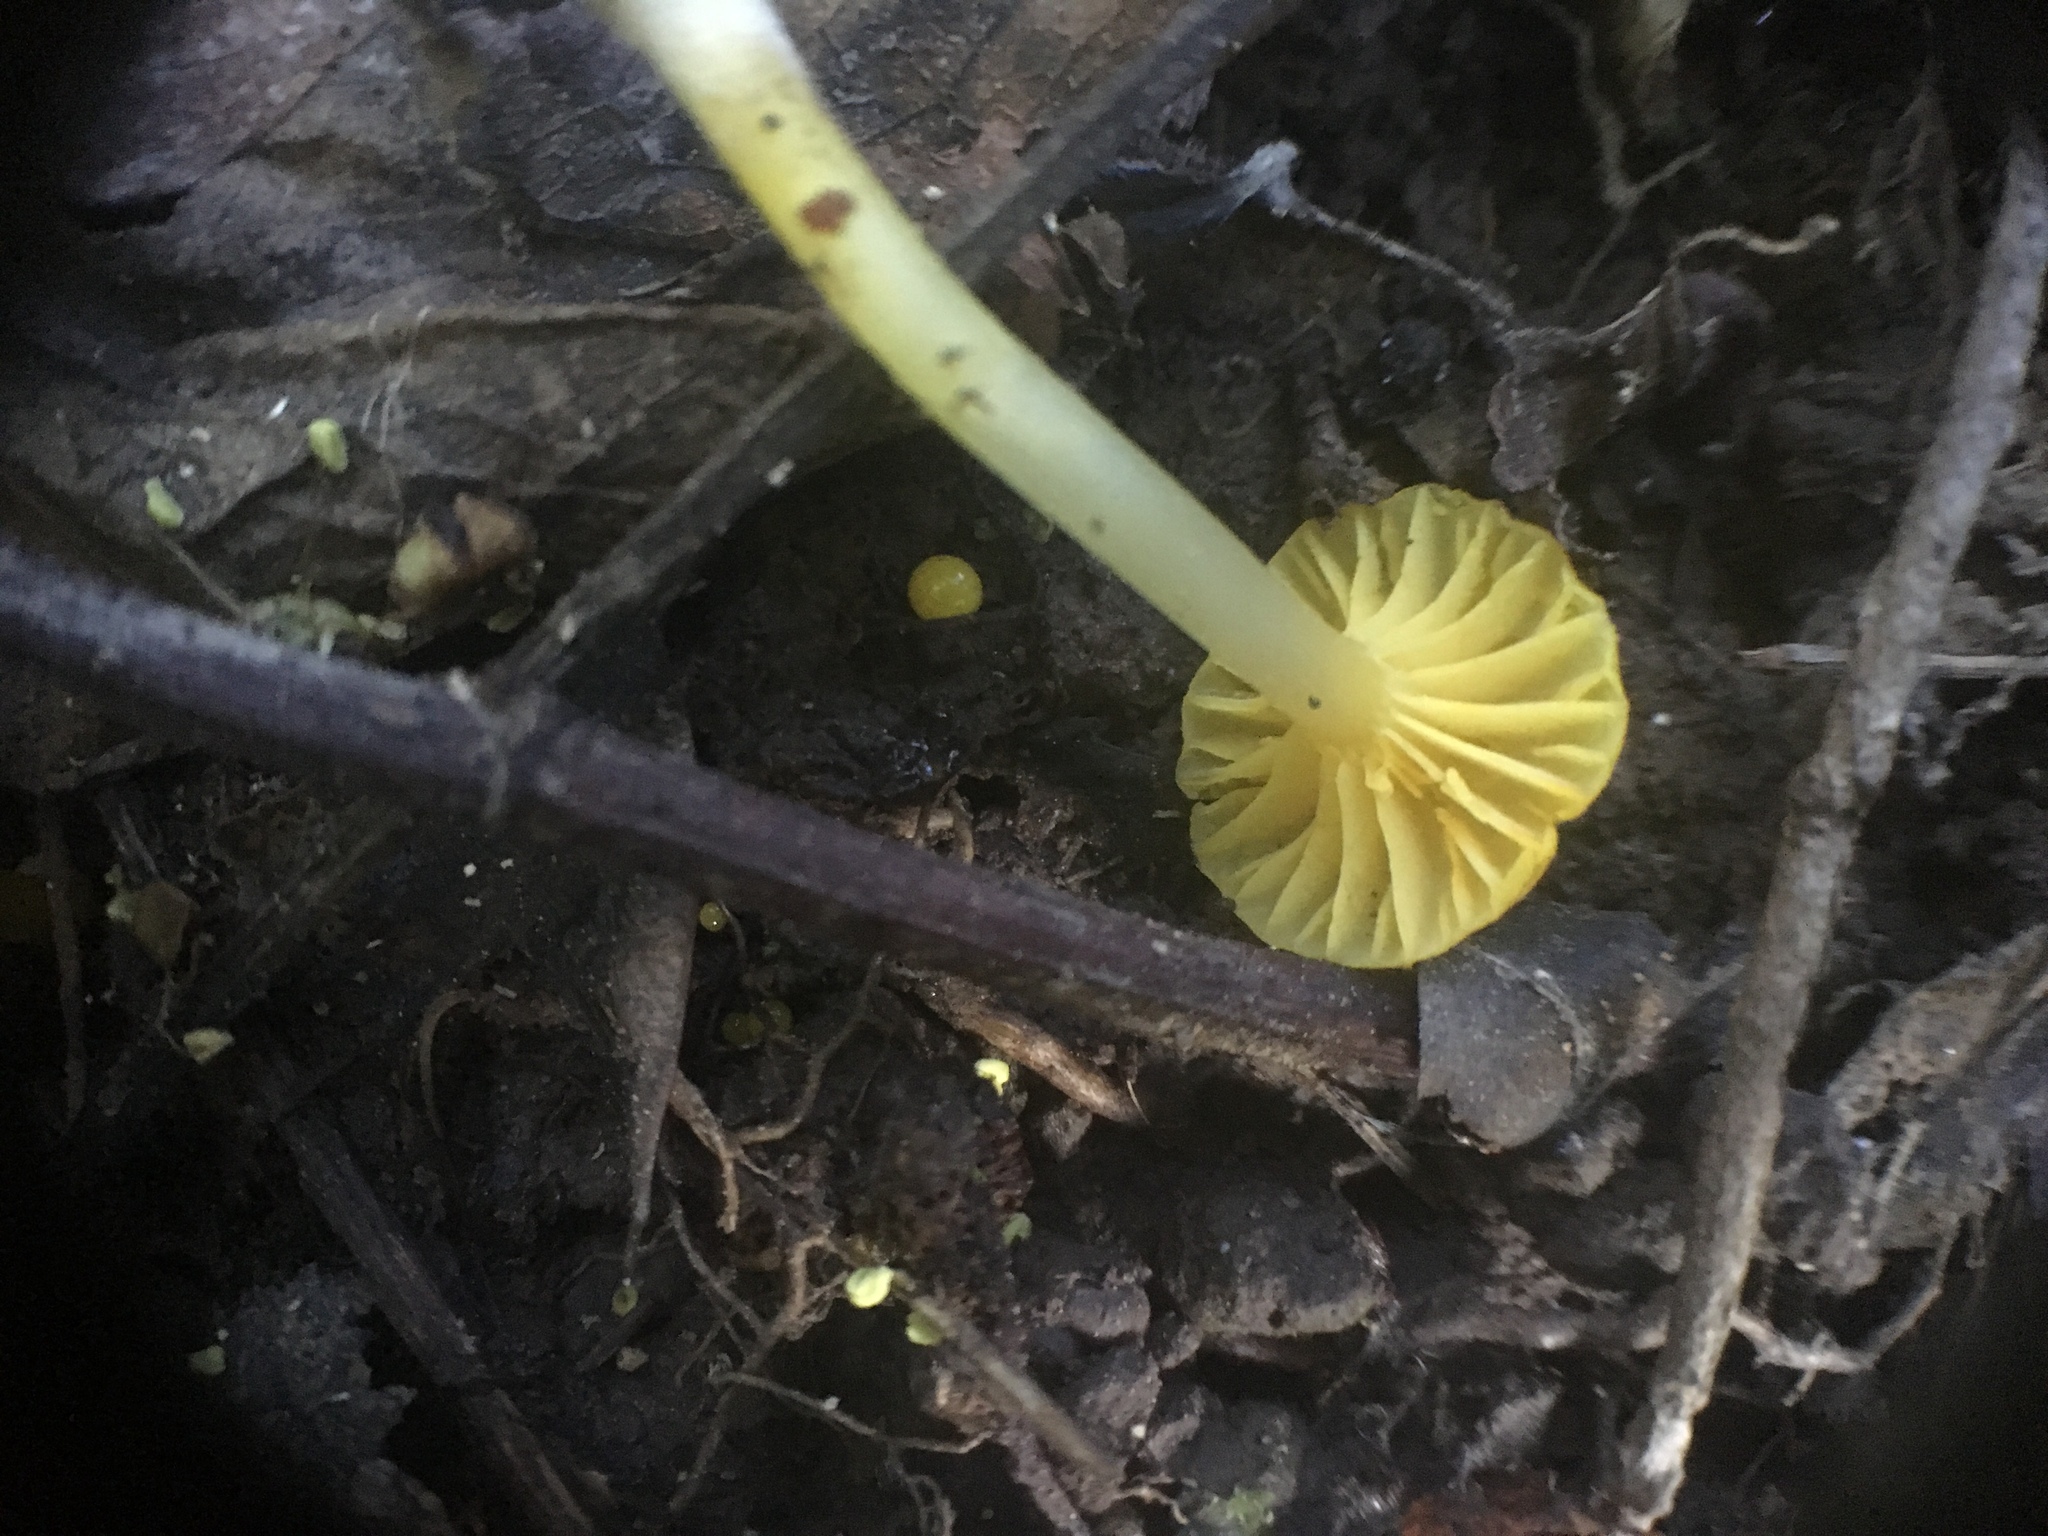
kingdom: Fungi
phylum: Basidiomycota
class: Agaricomycetes
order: Agaricales
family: Hygrophoraceae
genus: Gloioxanthomyces
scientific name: Gloioxanthomyces
